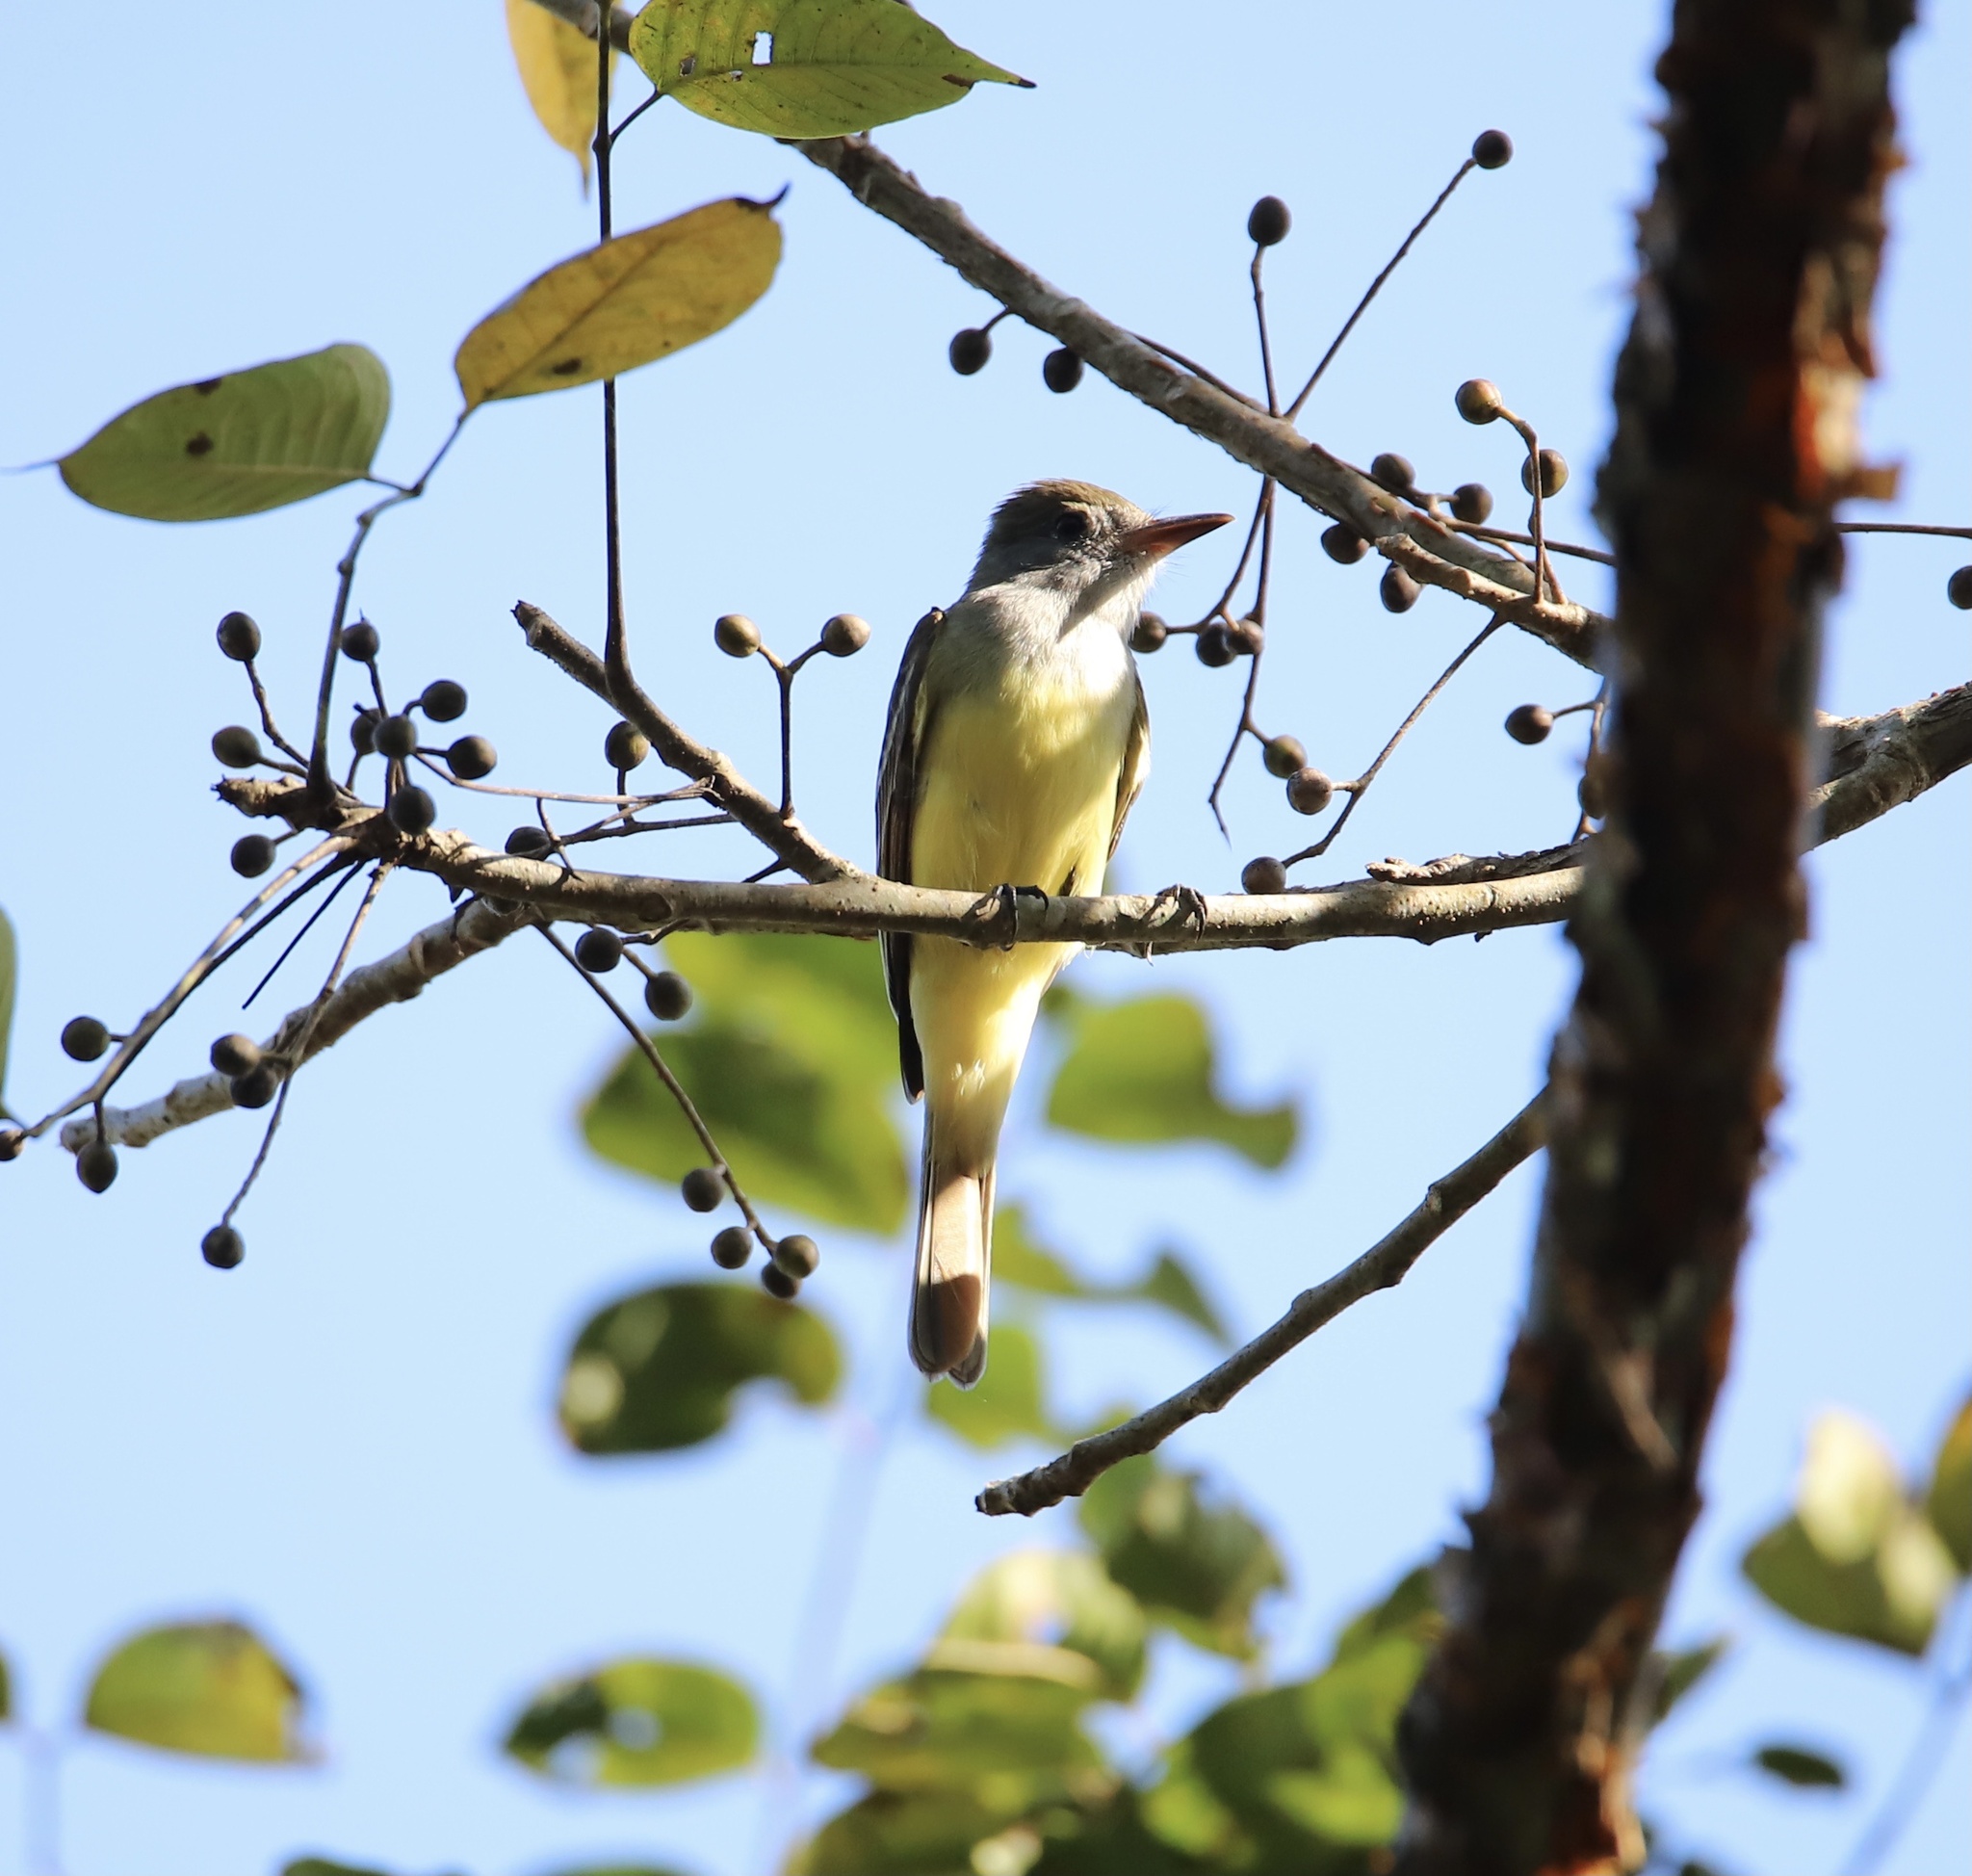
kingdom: Animalia
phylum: Chordata
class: Aves
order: Passeriformes
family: Tyrannidae
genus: Myiarchus
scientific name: Myiarchus crinitus
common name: Great crested flycatcher
